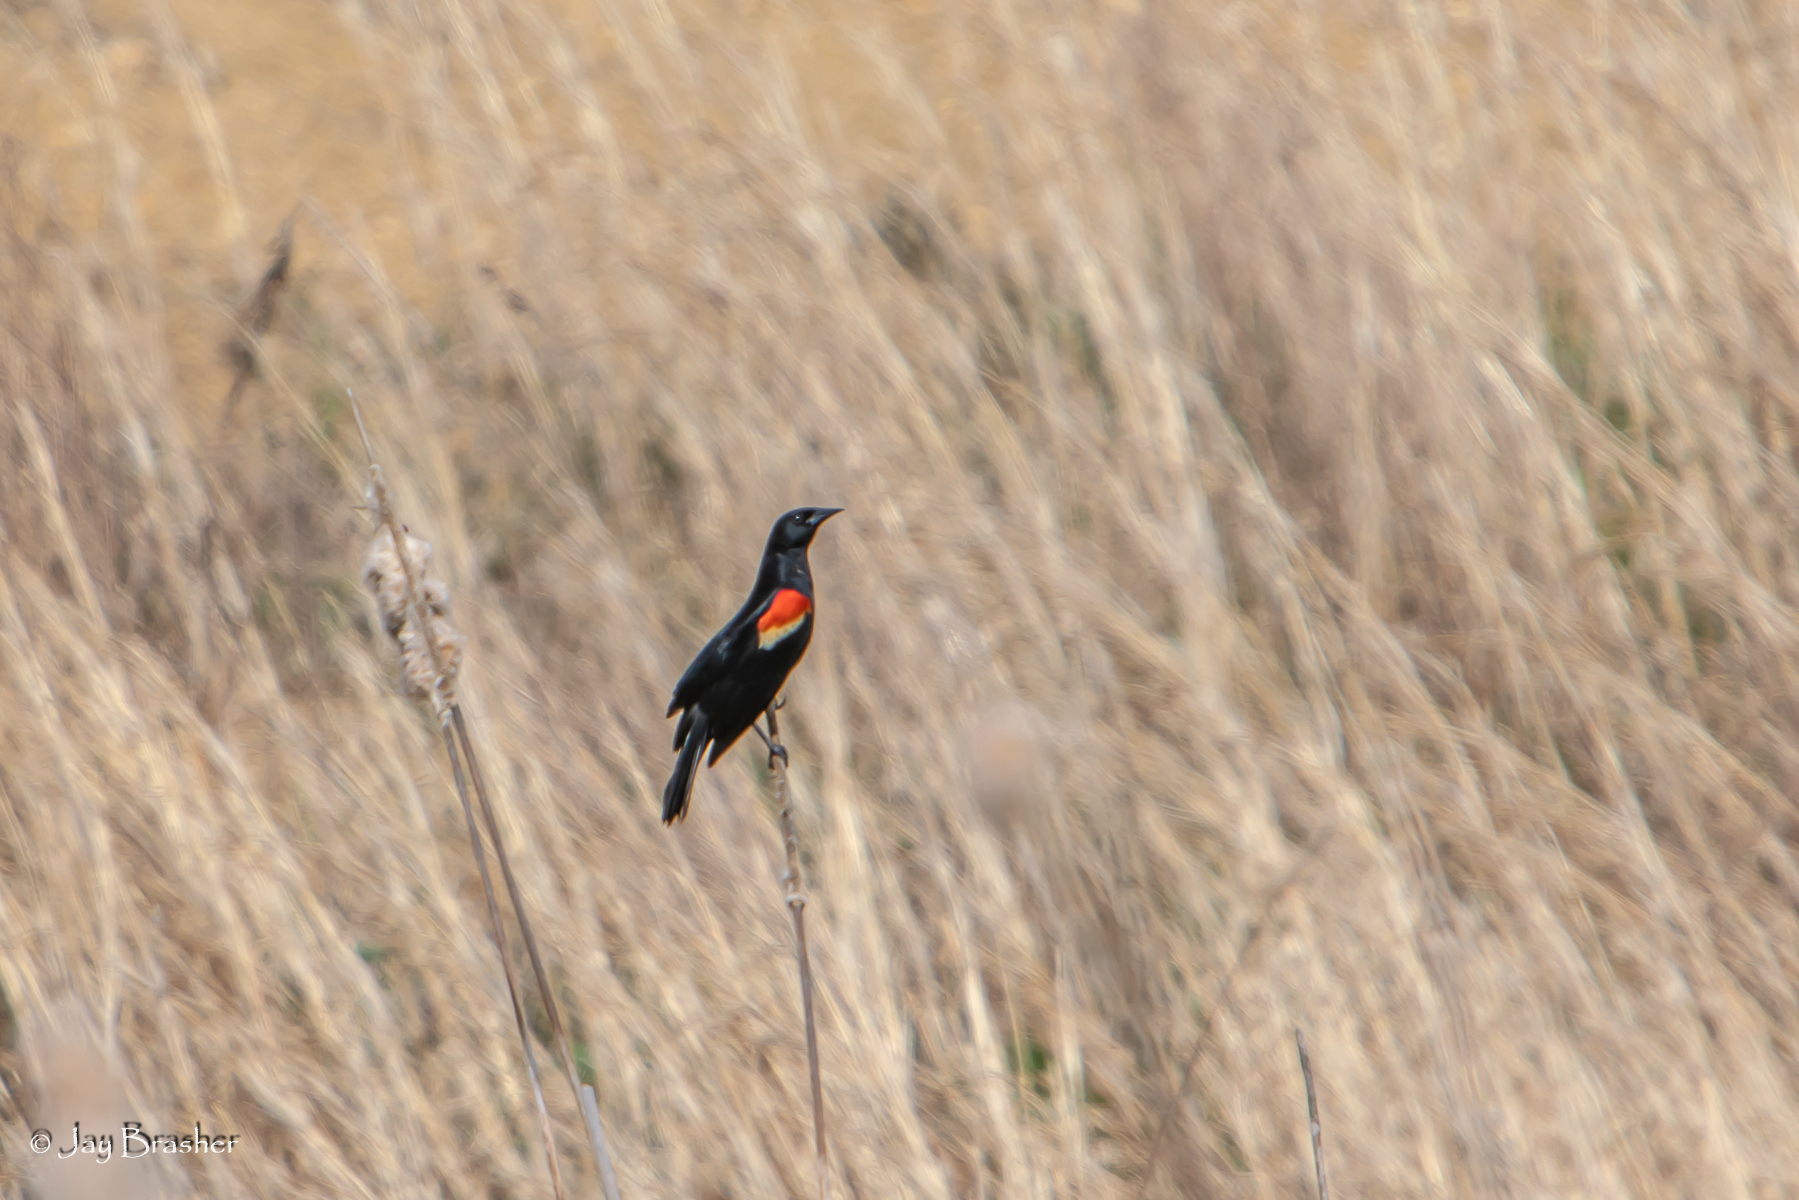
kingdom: Animalia
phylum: Chordata
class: Aves
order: Passeriformes
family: Icteridae
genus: Agelaius
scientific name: Agelaius phoeniceus
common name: Red-winged blackbird
